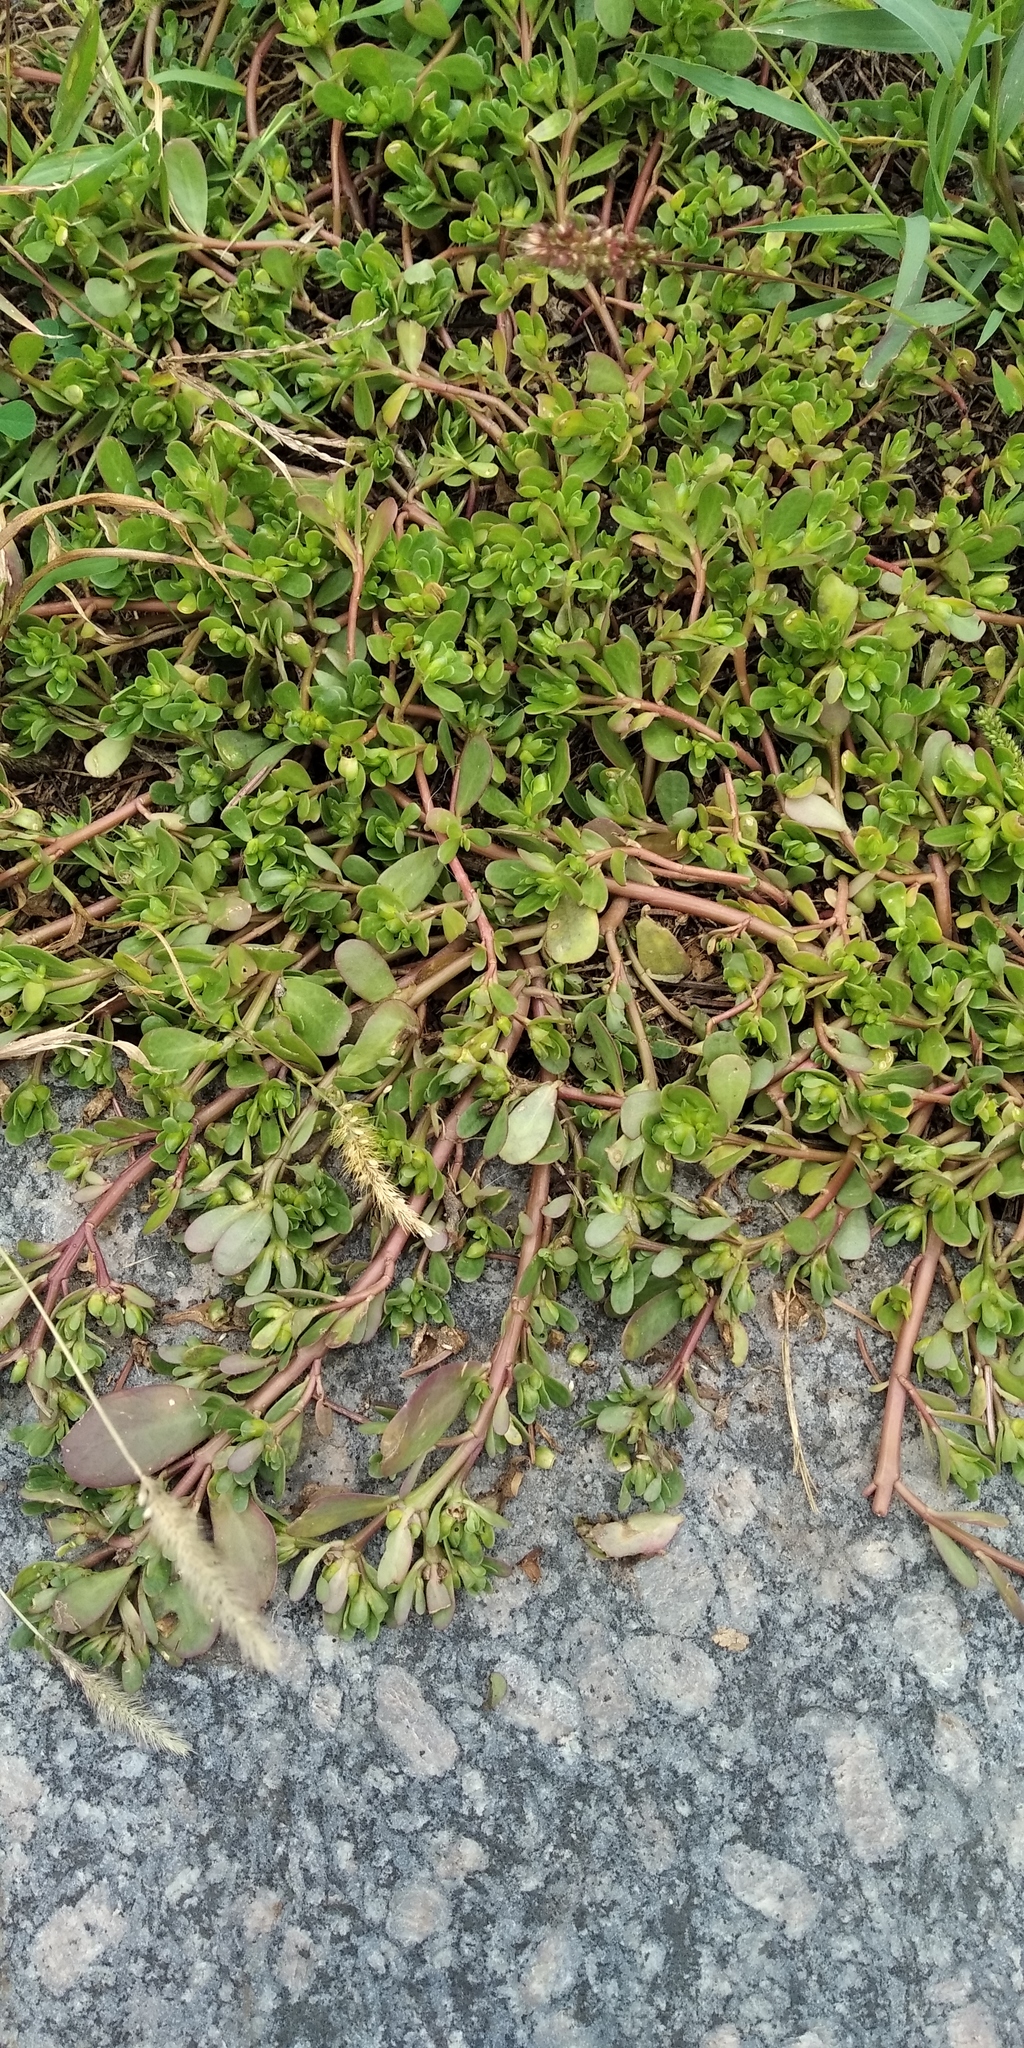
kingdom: Plantae
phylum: Tracheophyta
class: Magnoliopsida
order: Caryophyllales
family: Portulacaceae
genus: Portulaca
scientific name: Portulaca oleracea
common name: Common purslane
